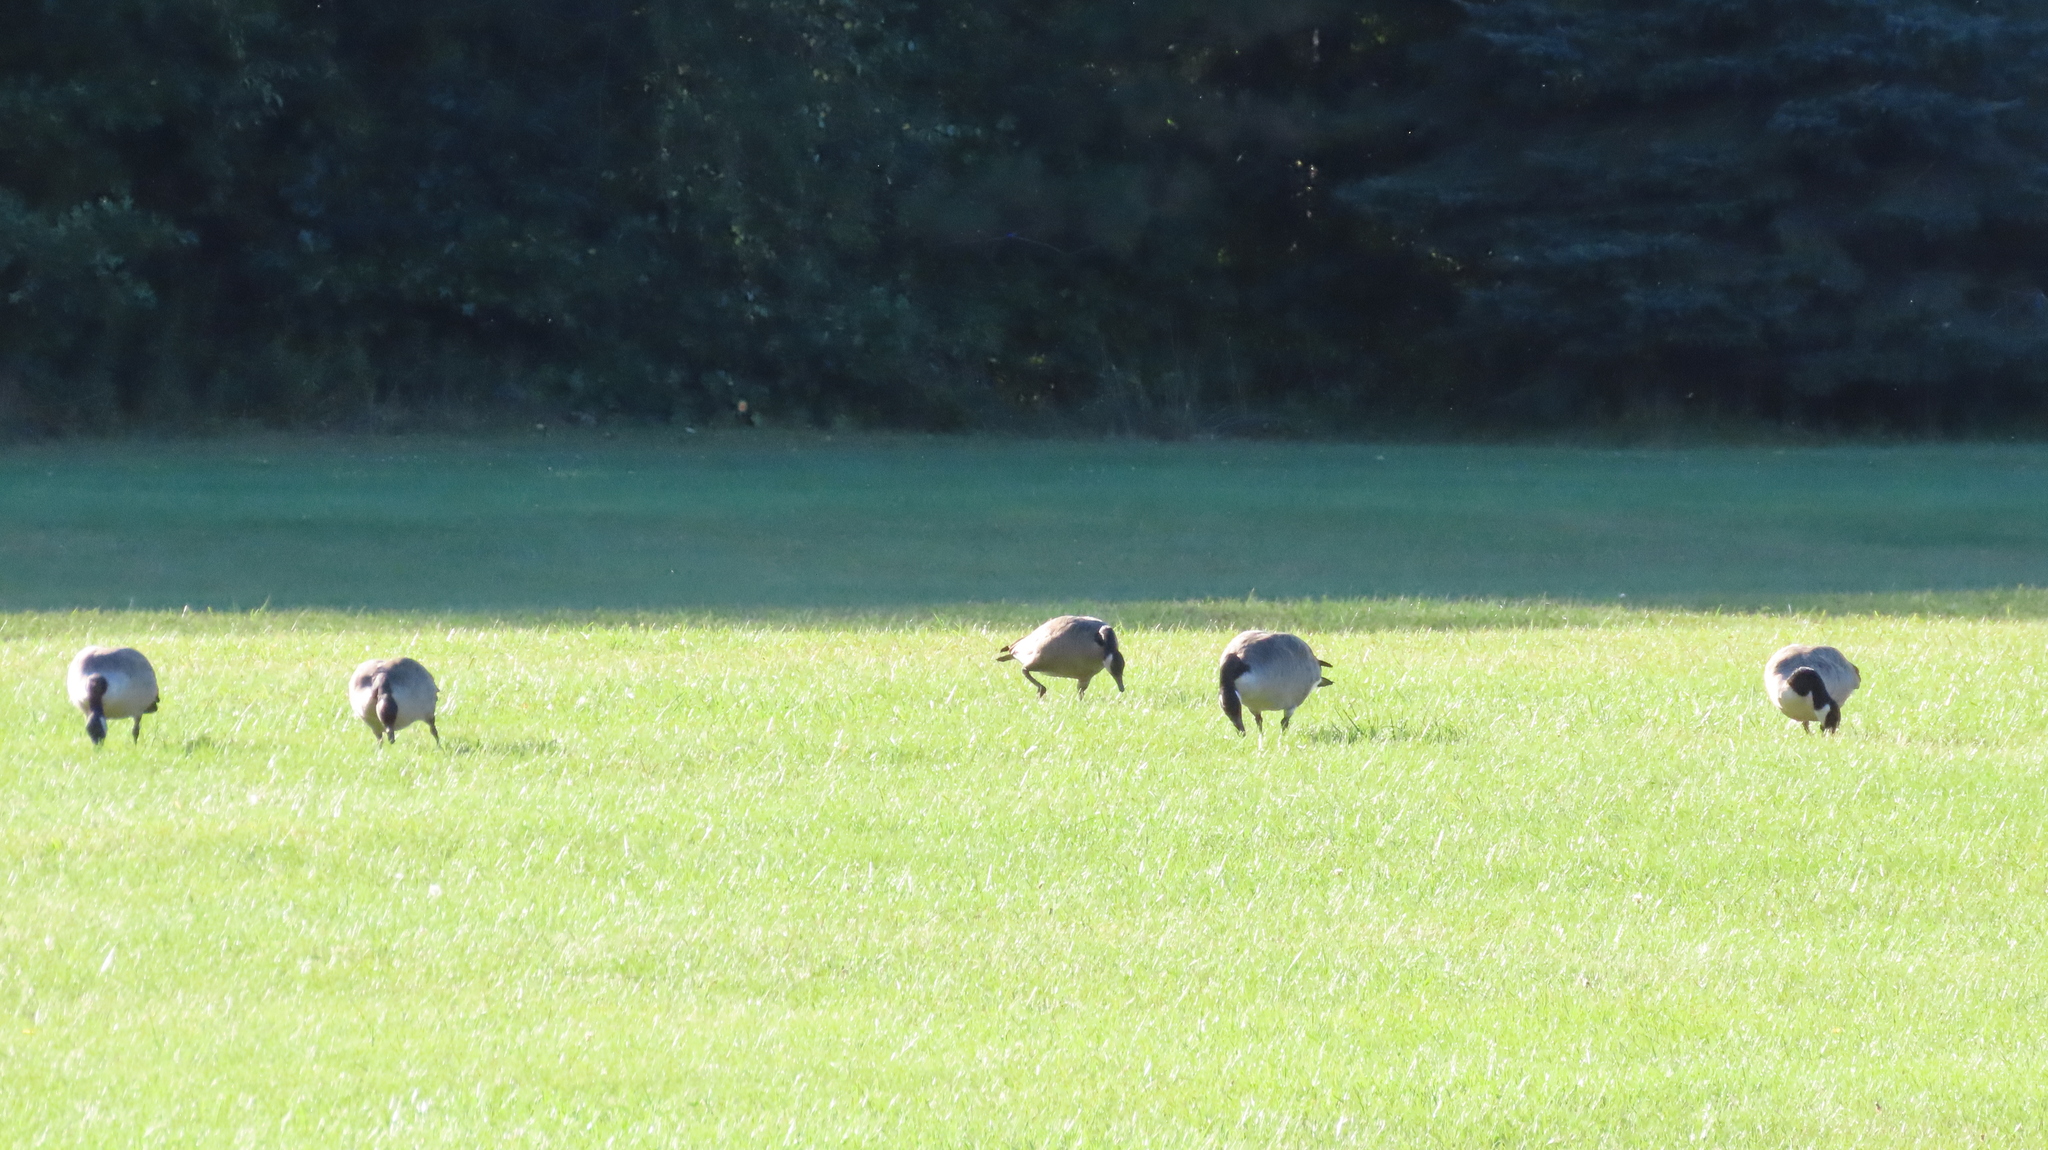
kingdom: Animalia
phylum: Chordata
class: Aves
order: Anseriformes
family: Anatidae
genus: Branta
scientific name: Branta canadensis
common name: Canada goose
